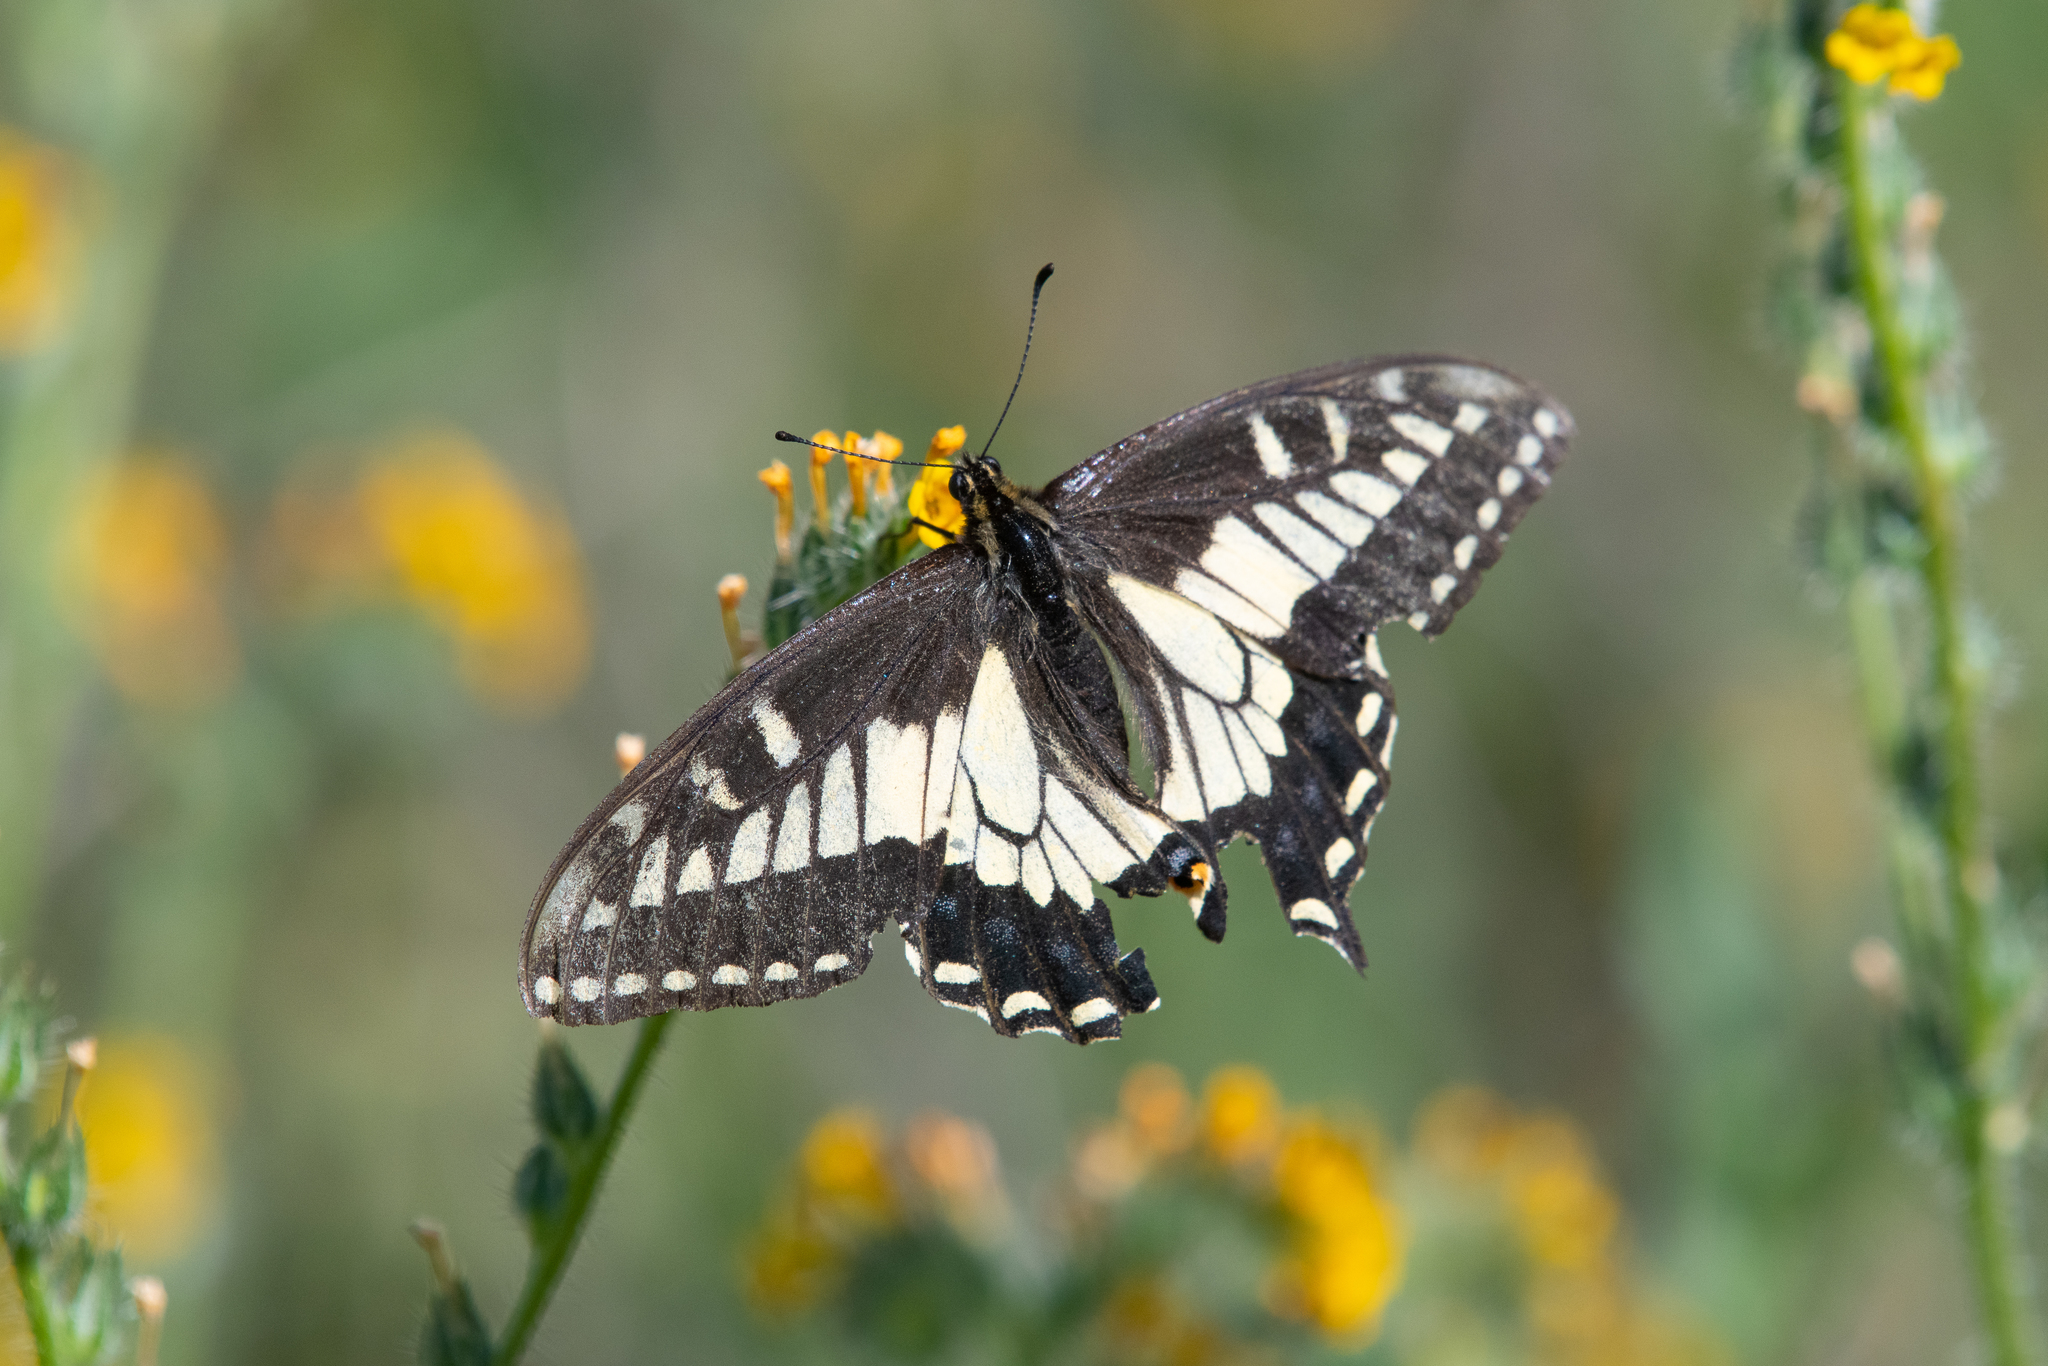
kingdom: Animalia
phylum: Arthropoda
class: Insecta
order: Lepidoptera
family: Papilionidae
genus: Papilio
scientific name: Papilio zelicaon
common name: Anise swallowtail
